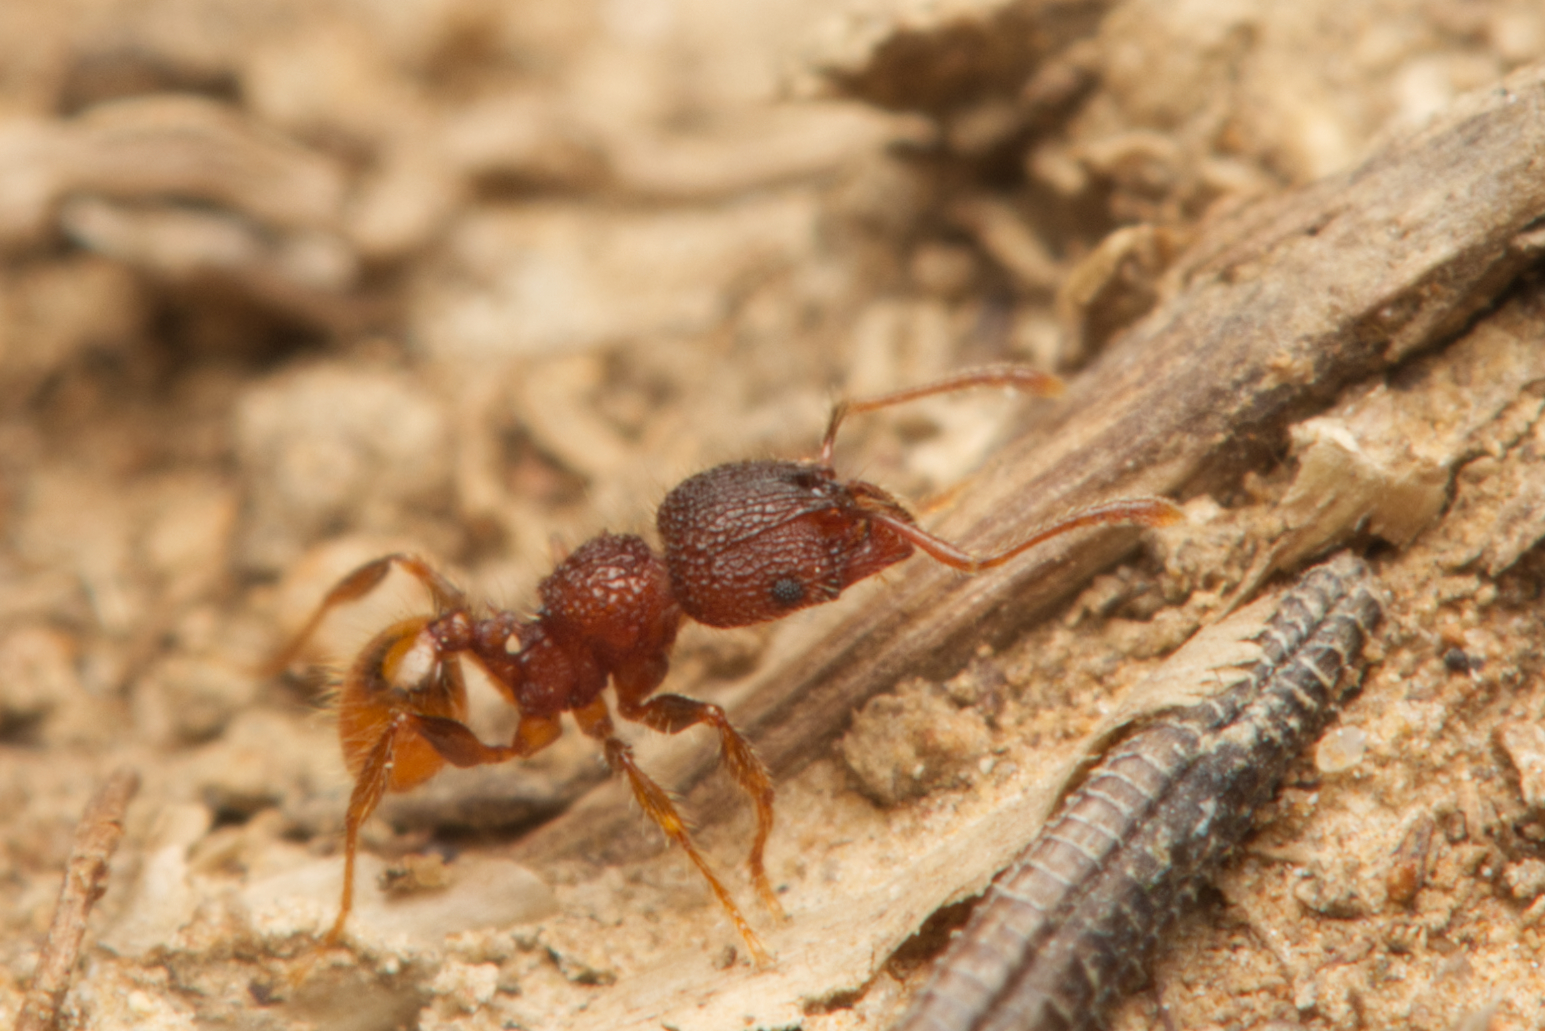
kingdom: Animalia
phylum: Arthropoda
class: Insecta
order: Hymenoptera
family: Formicidae
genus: Pheidole
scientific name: Pheidole longiceps
